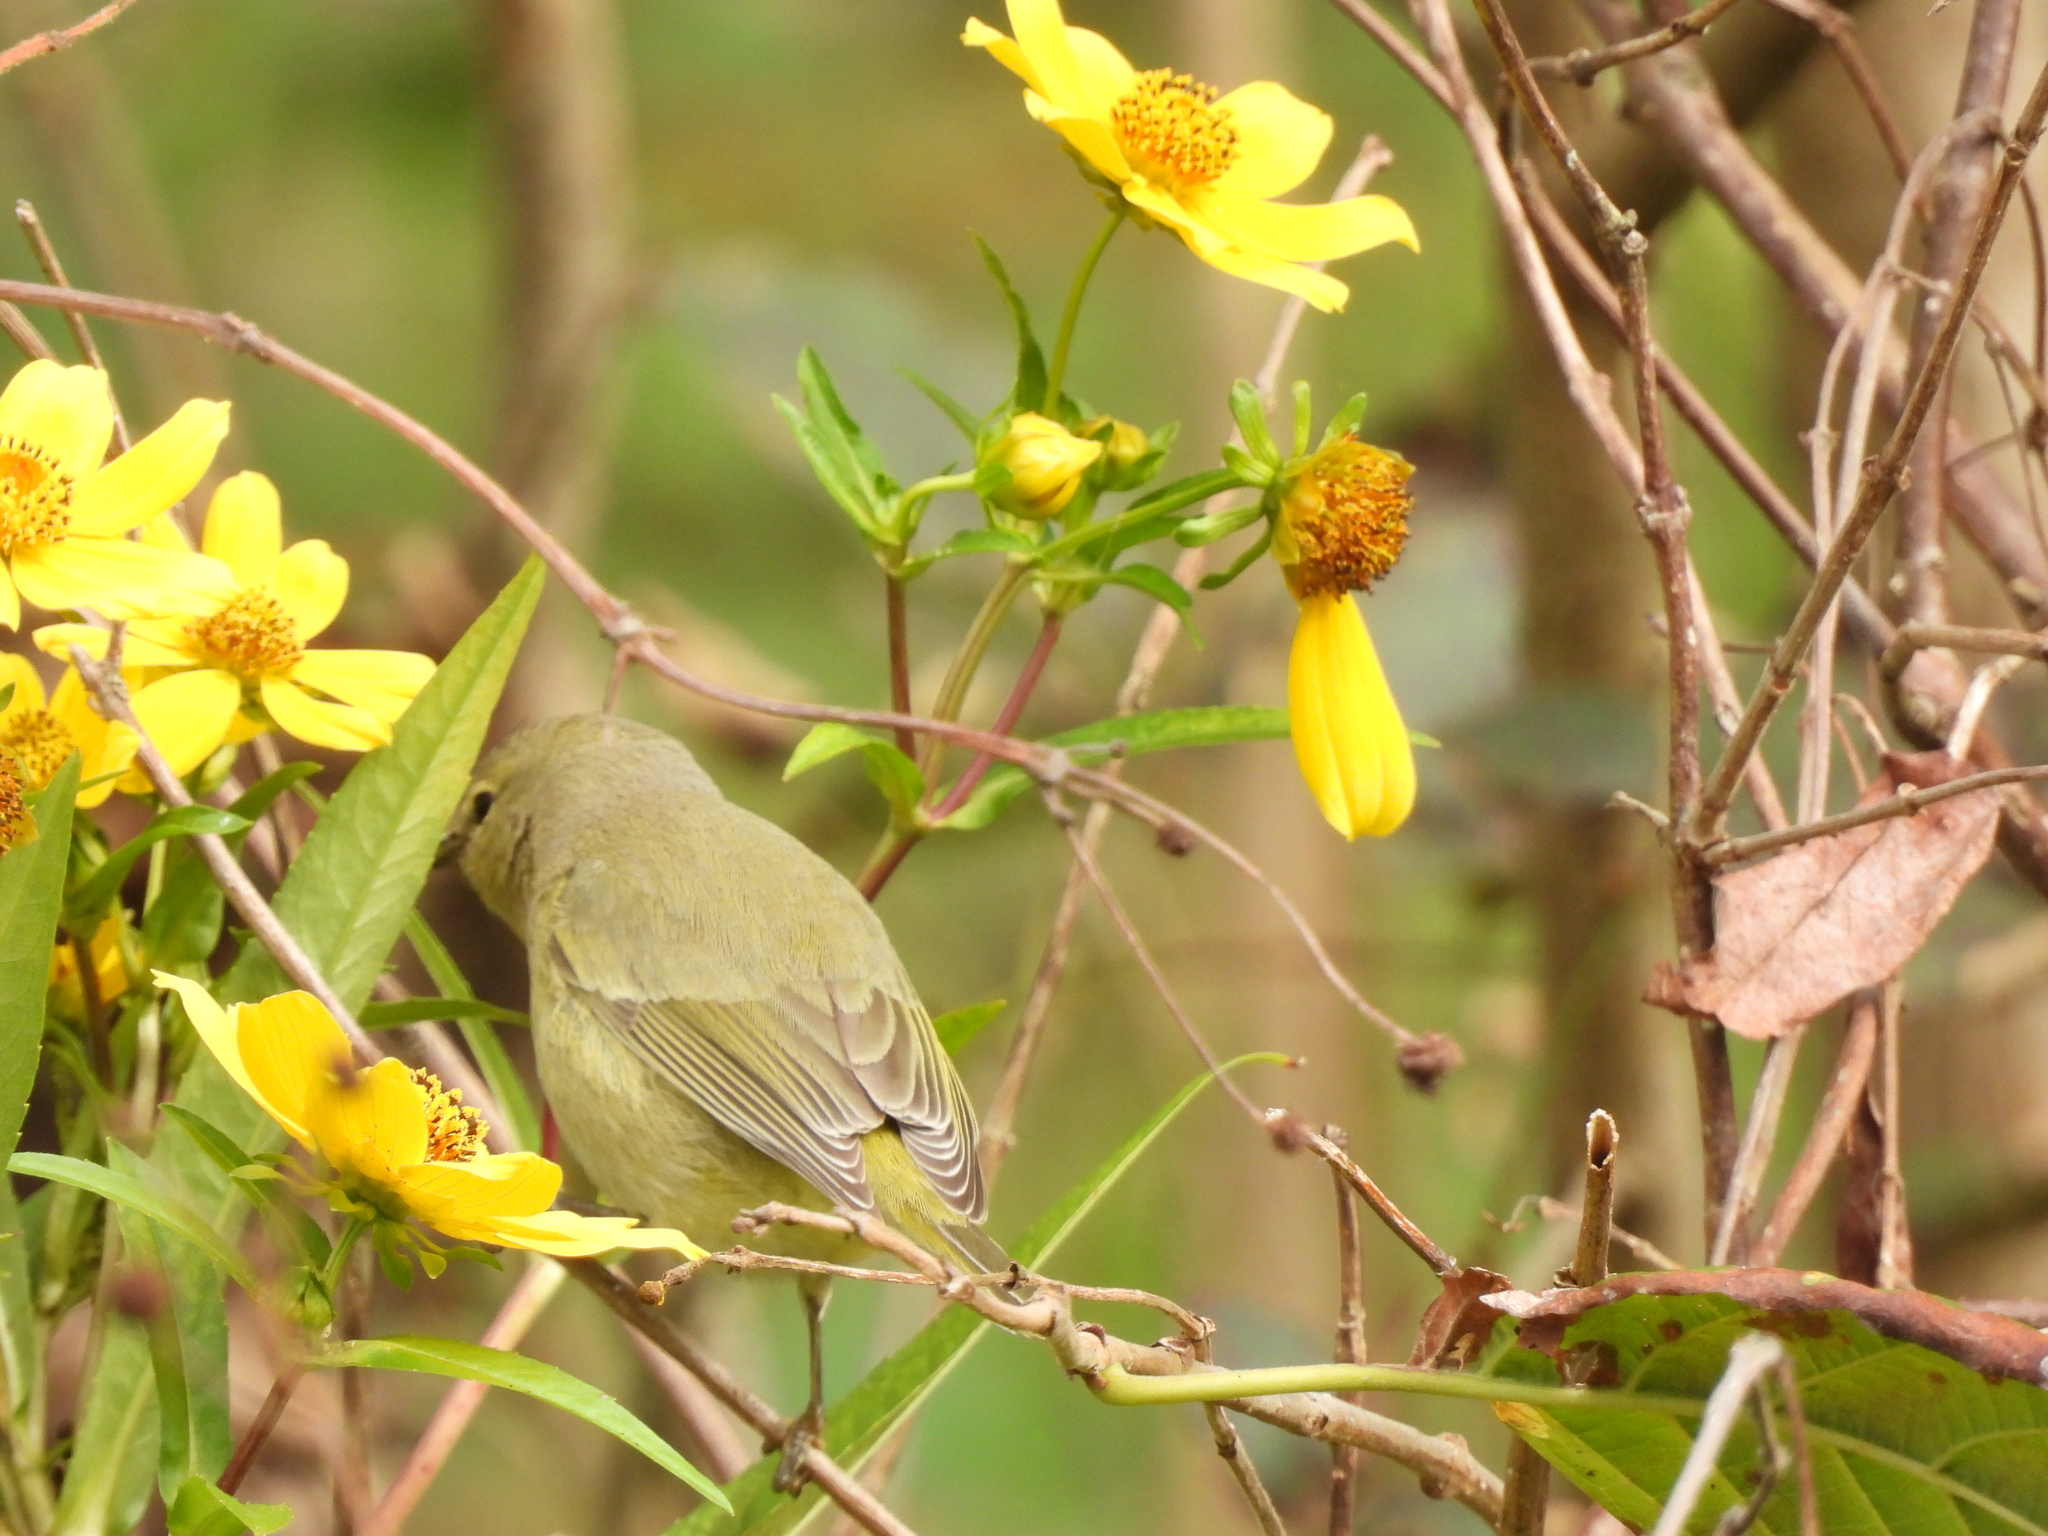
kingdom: Animalia
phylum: Chordata
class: Aves
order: Passeriformes
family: Parulidae
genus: Leiothlypis
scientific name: Leiothlypis celata
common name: Orange-crowned warbler
